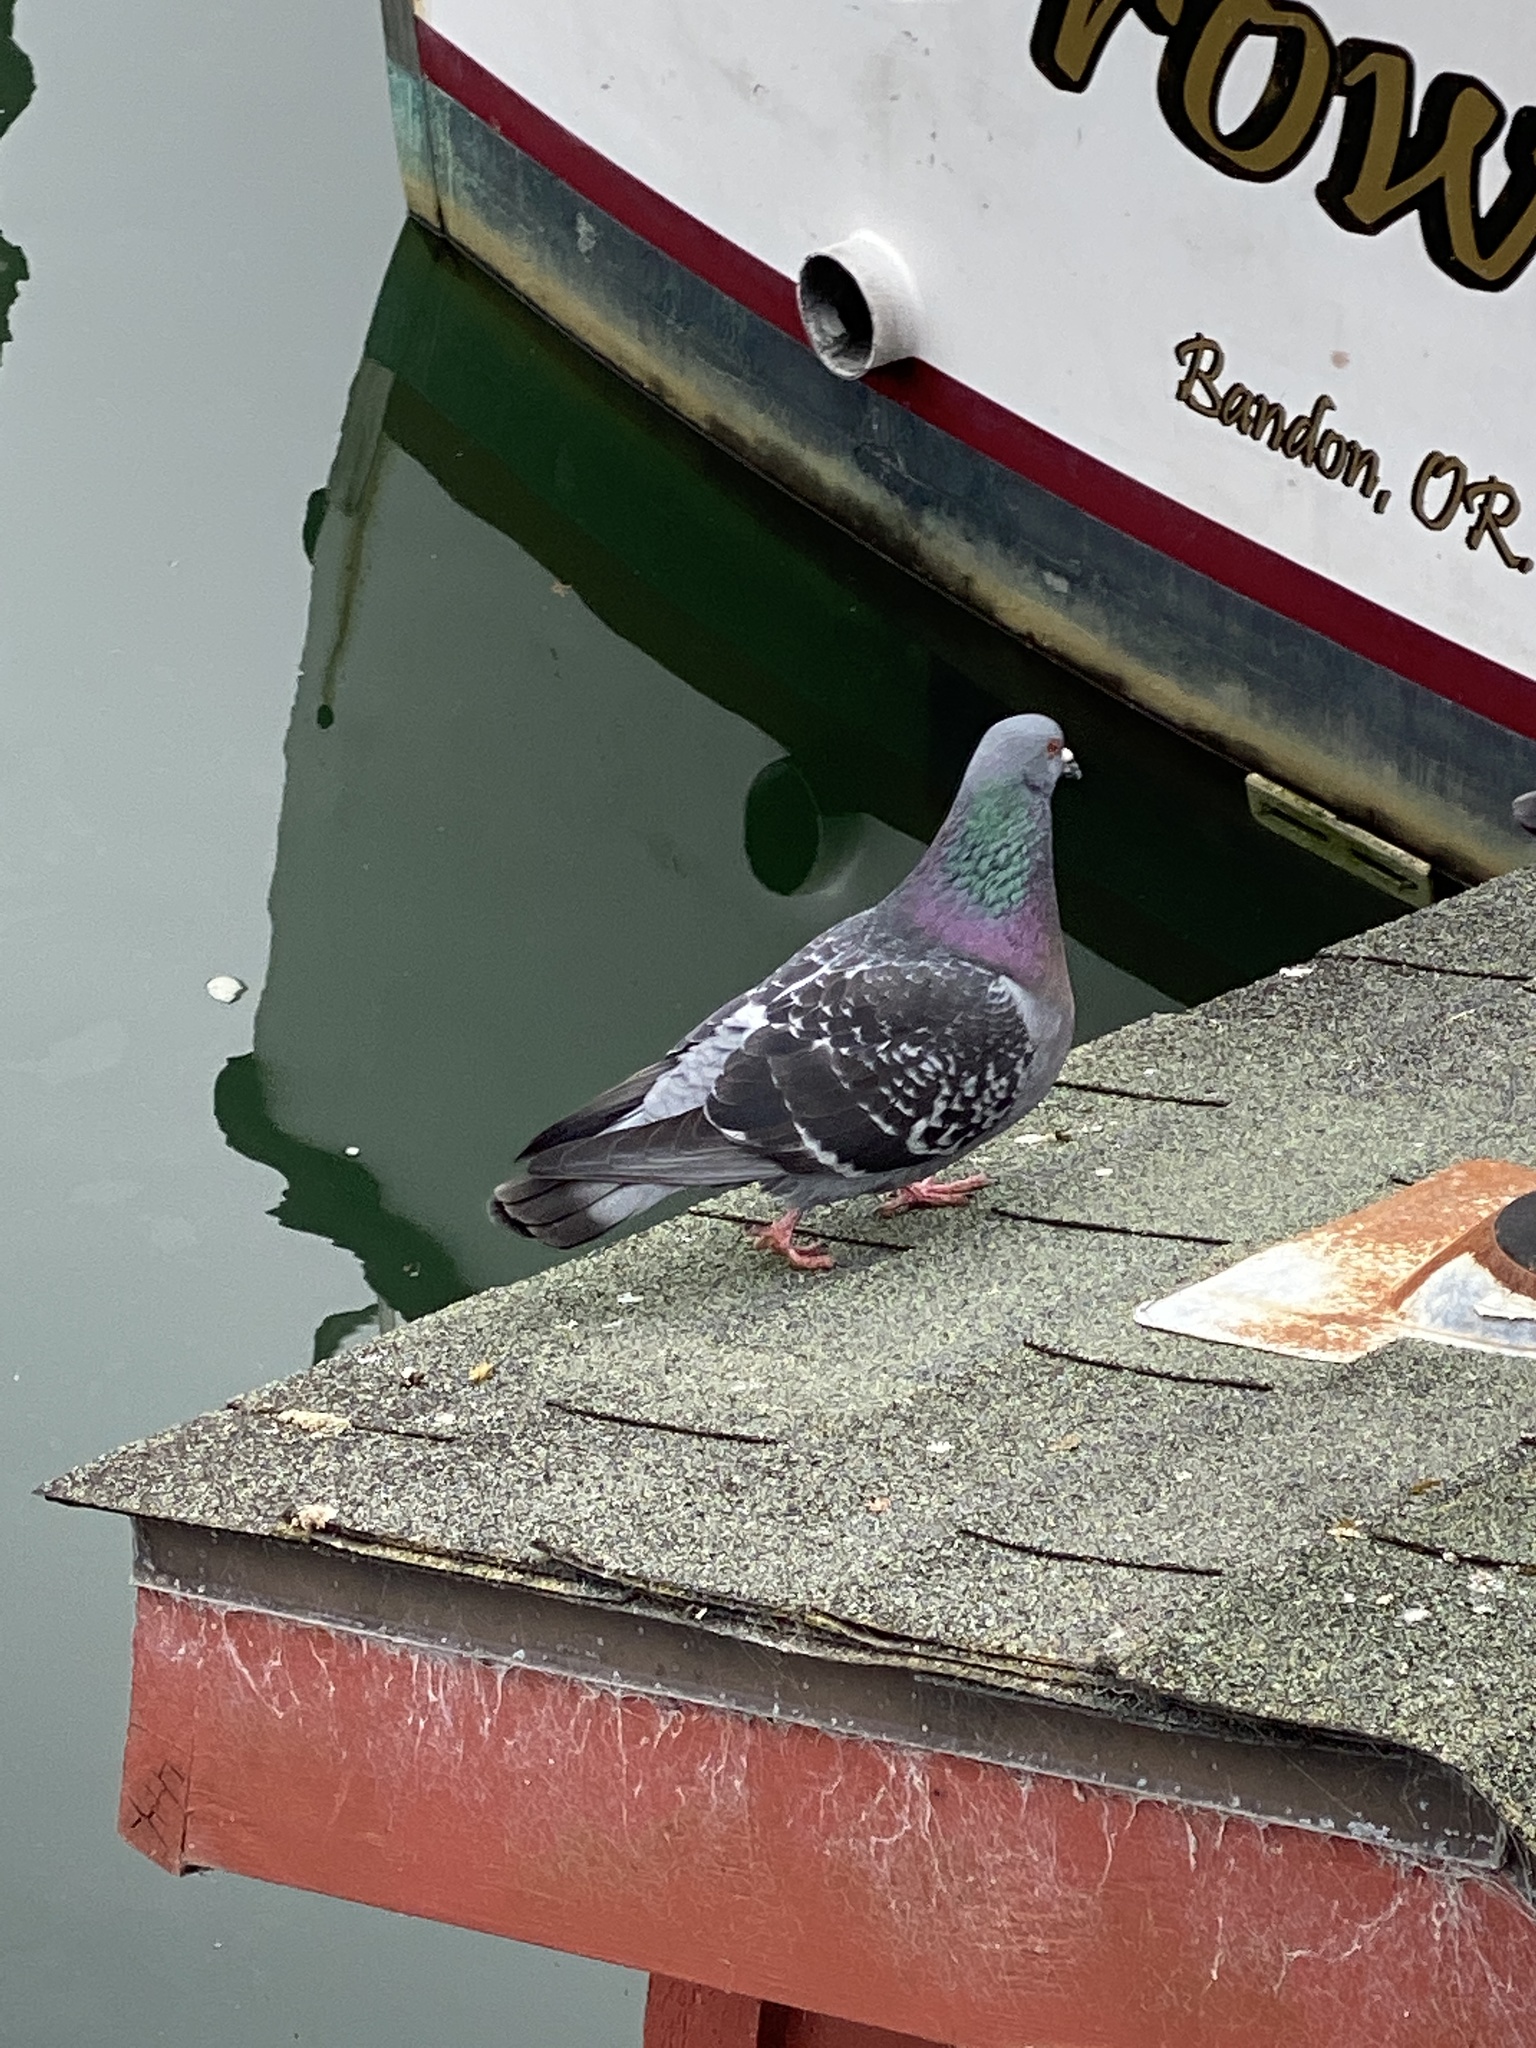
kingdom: Animalia
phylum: Chordata
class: Aves
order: Columbiformes
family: Columbidae
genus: Columba
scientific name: Columba livia
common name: Rock pigeon
